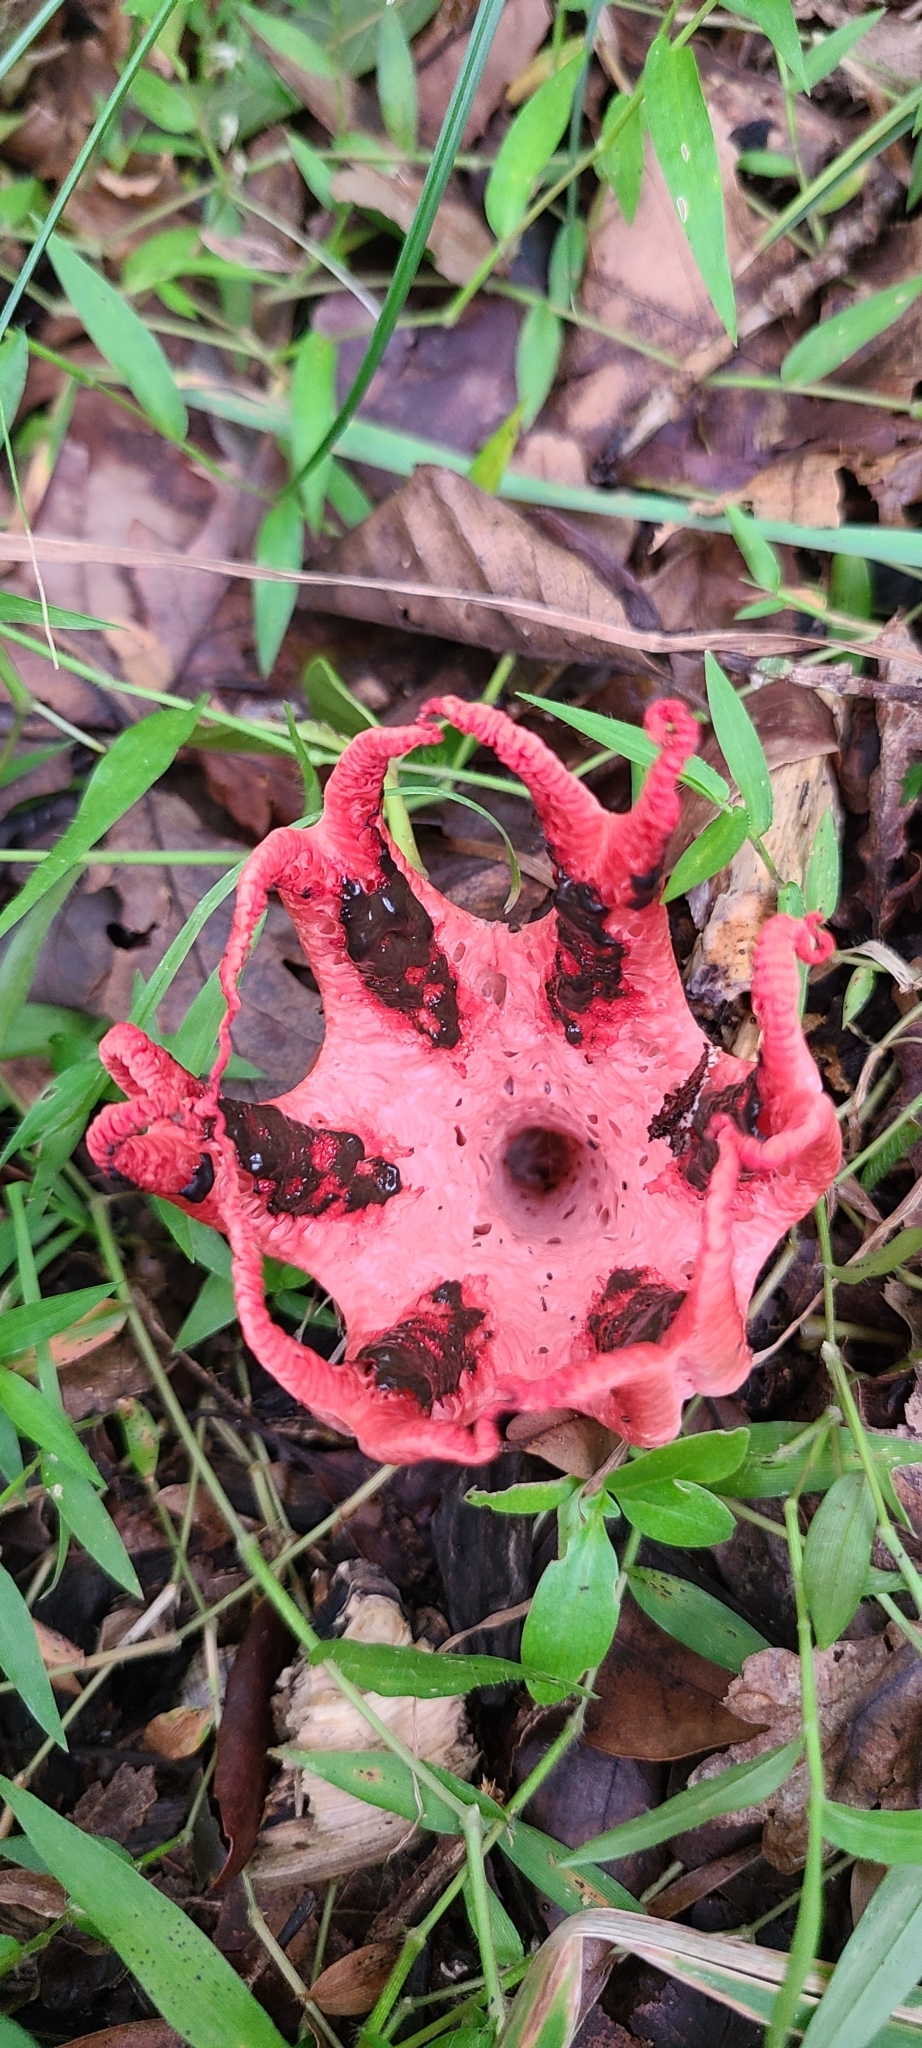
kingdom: Fungi
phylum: Basidiomycota
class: Agaricomycetes
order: Phallales
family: Phallaceae
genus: Clathrus
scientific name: Clathrus archeri
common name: Devil's fingers
